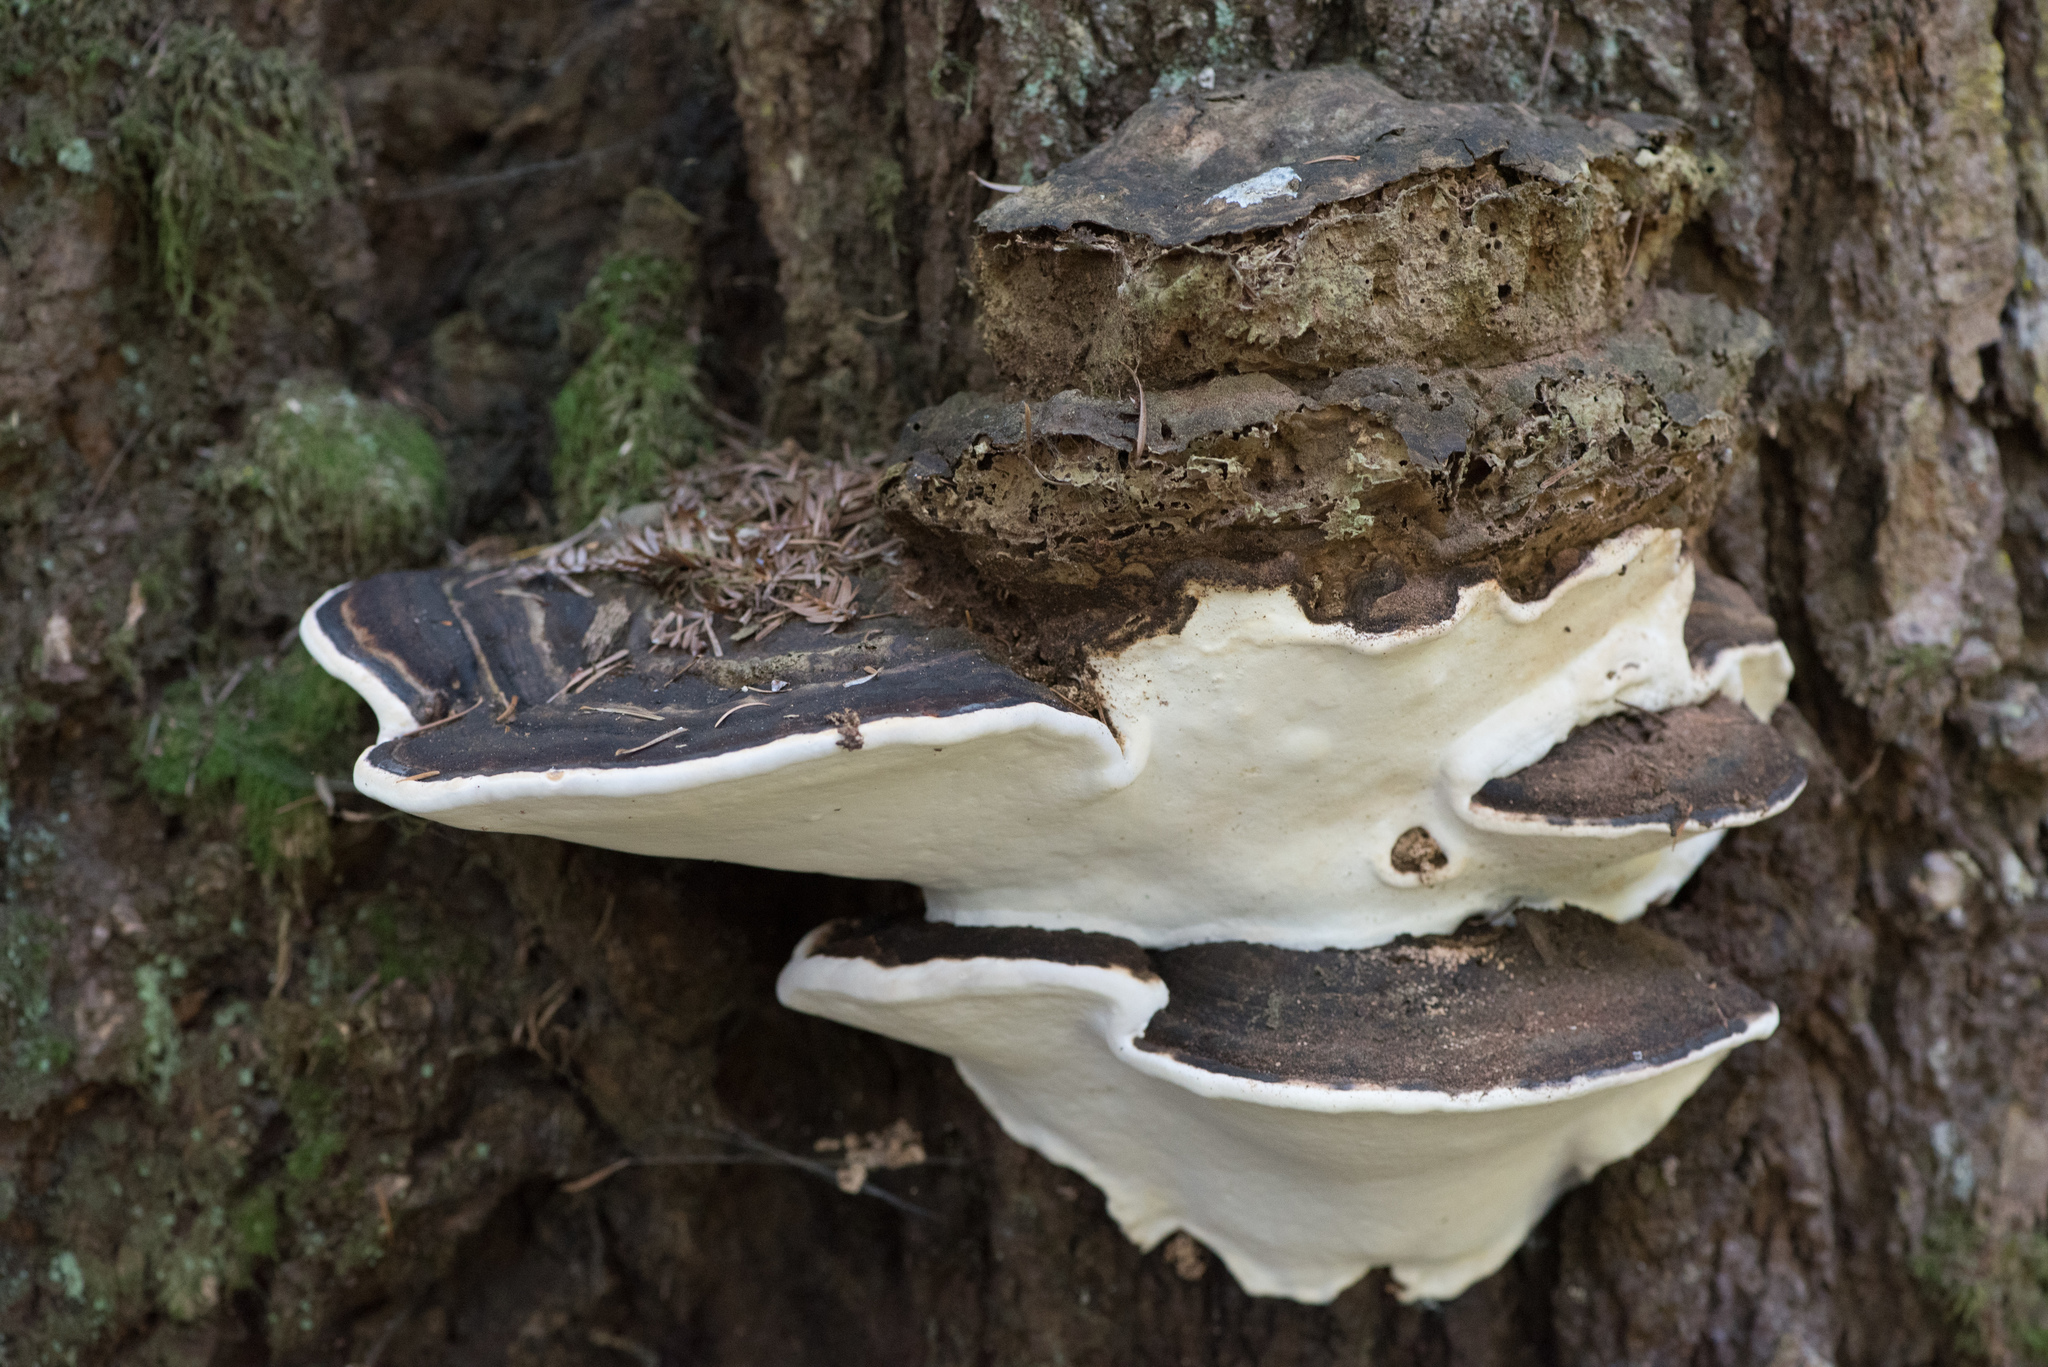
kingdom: Fungi
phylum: Basidiomycota
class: Agaricomycetes
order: Polyporales
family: Fomitopsidaceae
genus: Fomitopsis
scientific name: Fomitopsis ochracea
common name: American brown fomitopsis
